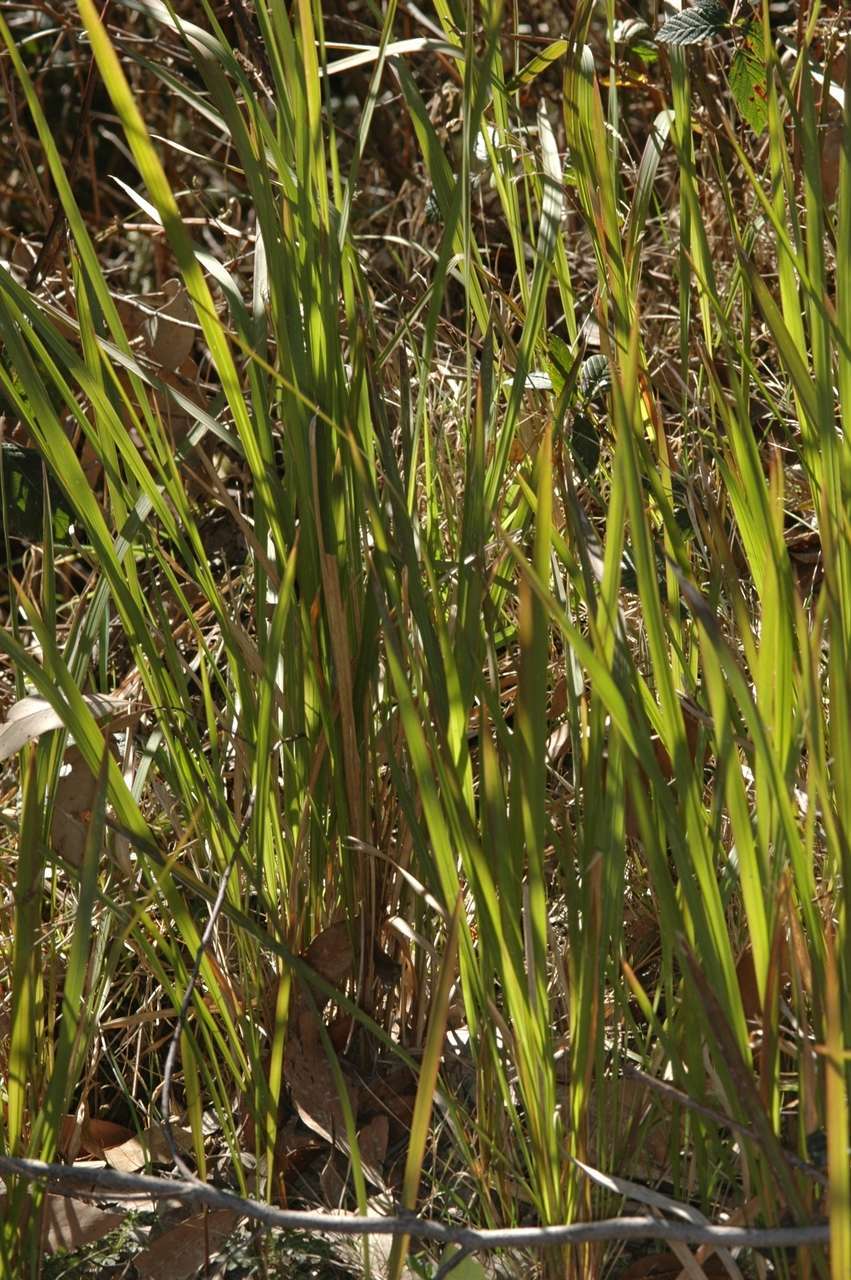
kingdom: Plantae
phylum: Tracheophyta
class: Liliopsida
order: Poales
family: Poaceae
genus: Imperata
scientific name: Imperata cylindrica
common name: Cogongrass
